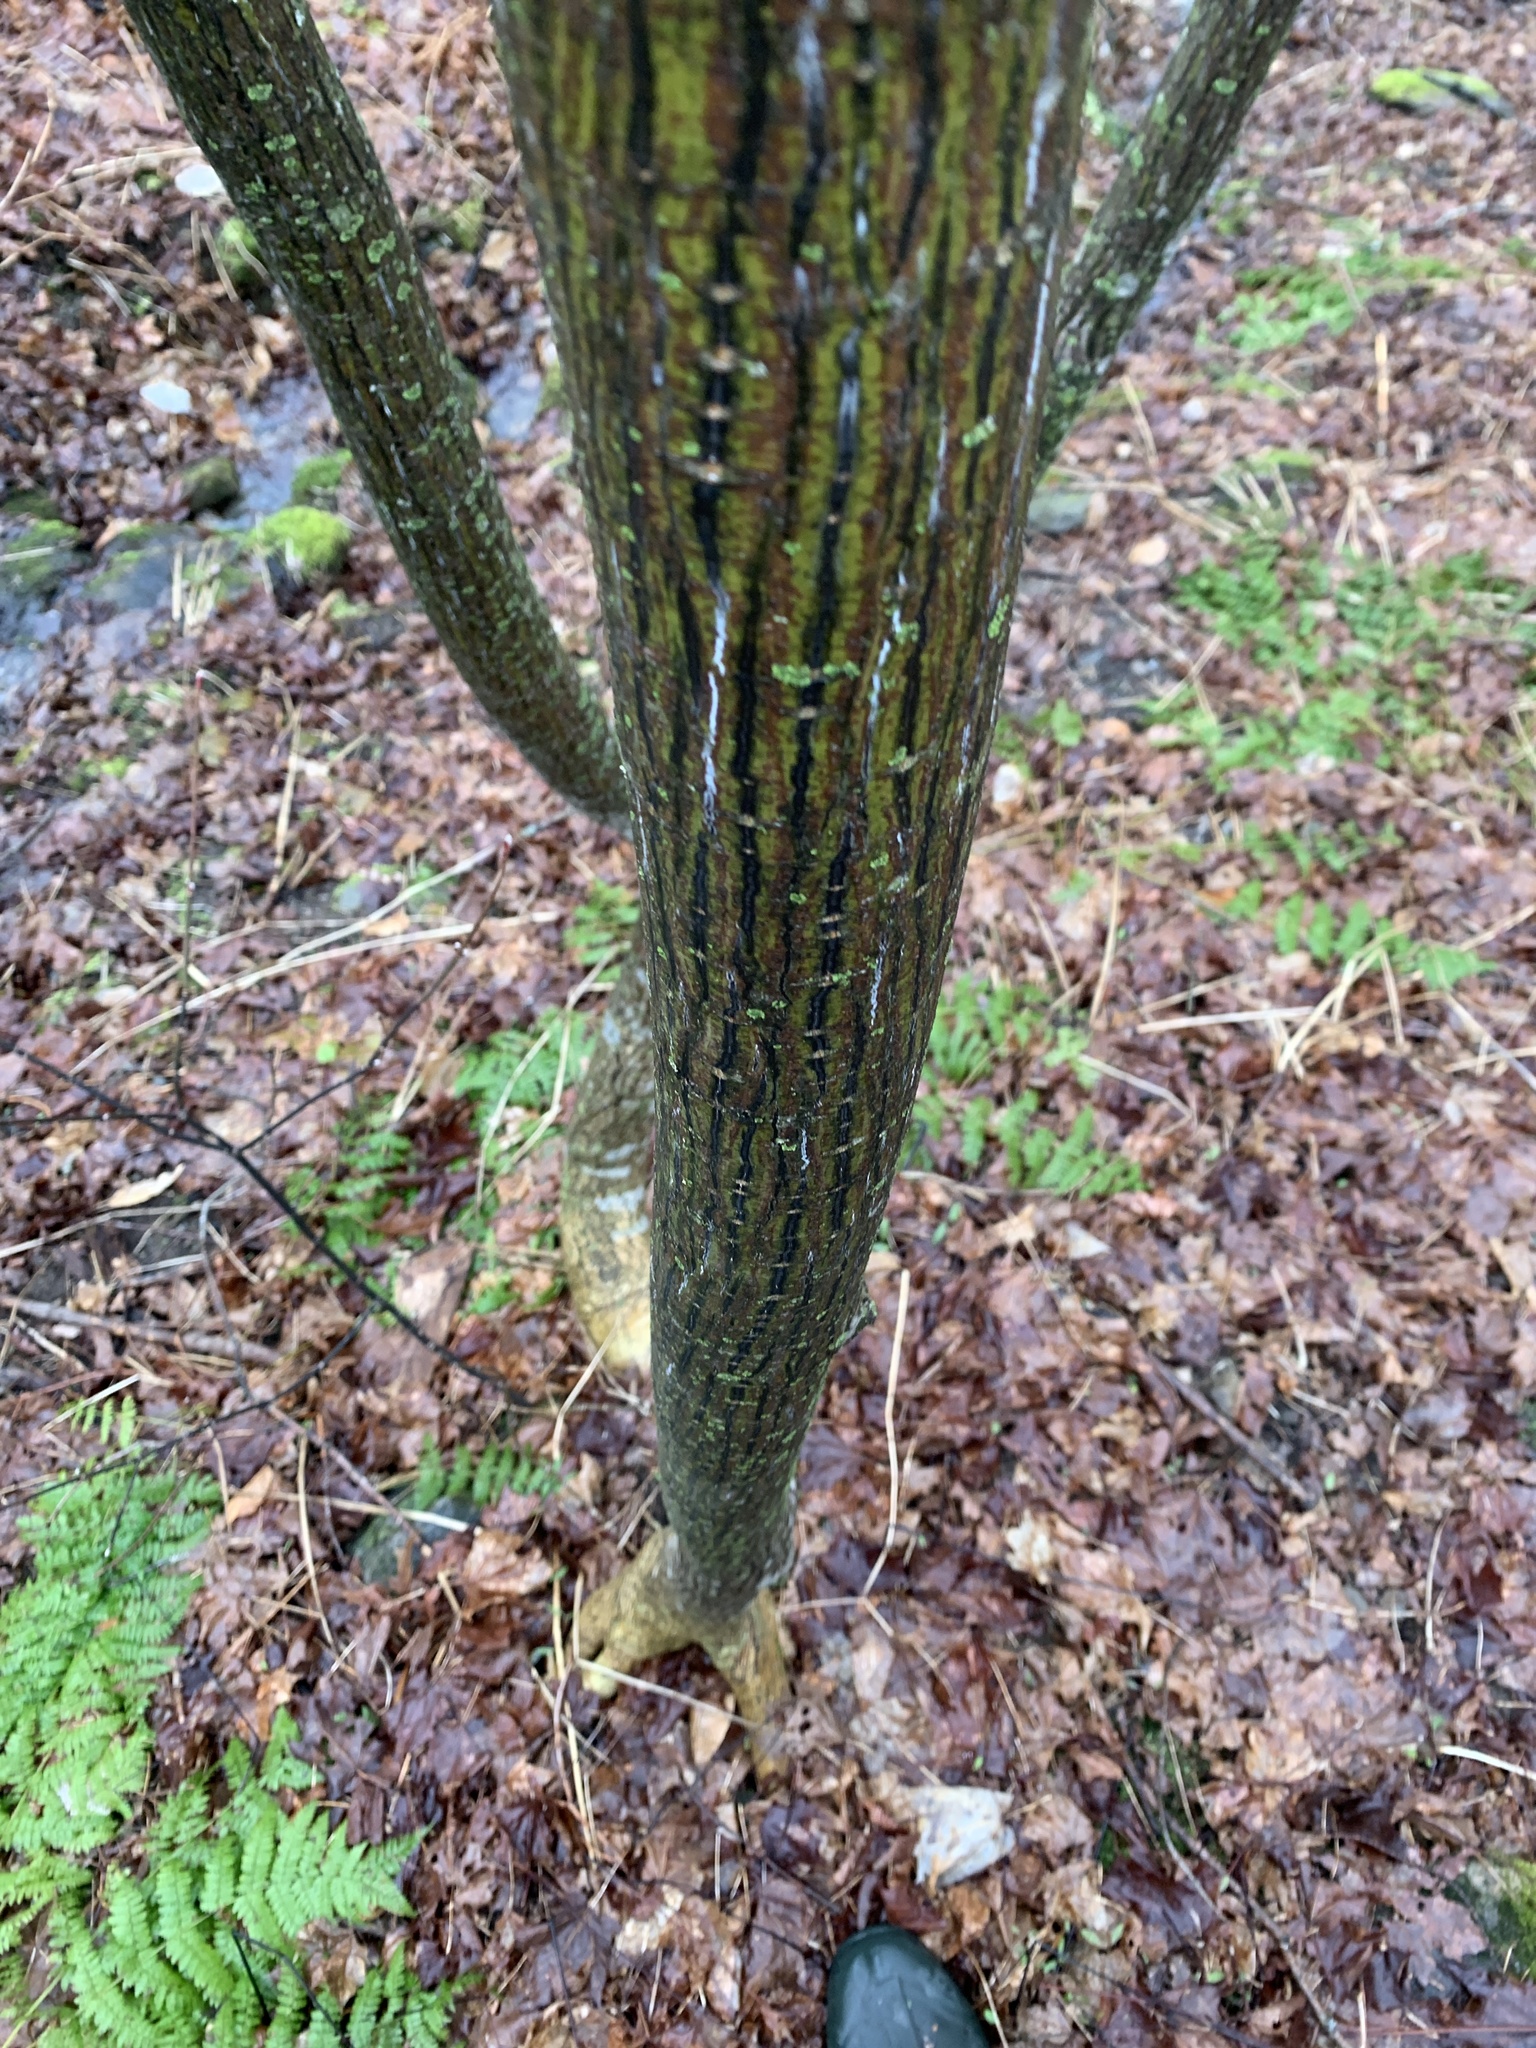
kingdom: Plantae
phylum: Tracheophyta
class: Magnoliopsida
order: Sapindales
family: Sapindaceae
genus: Acer
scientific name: Acer pensylvanicum
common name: Moosewood
